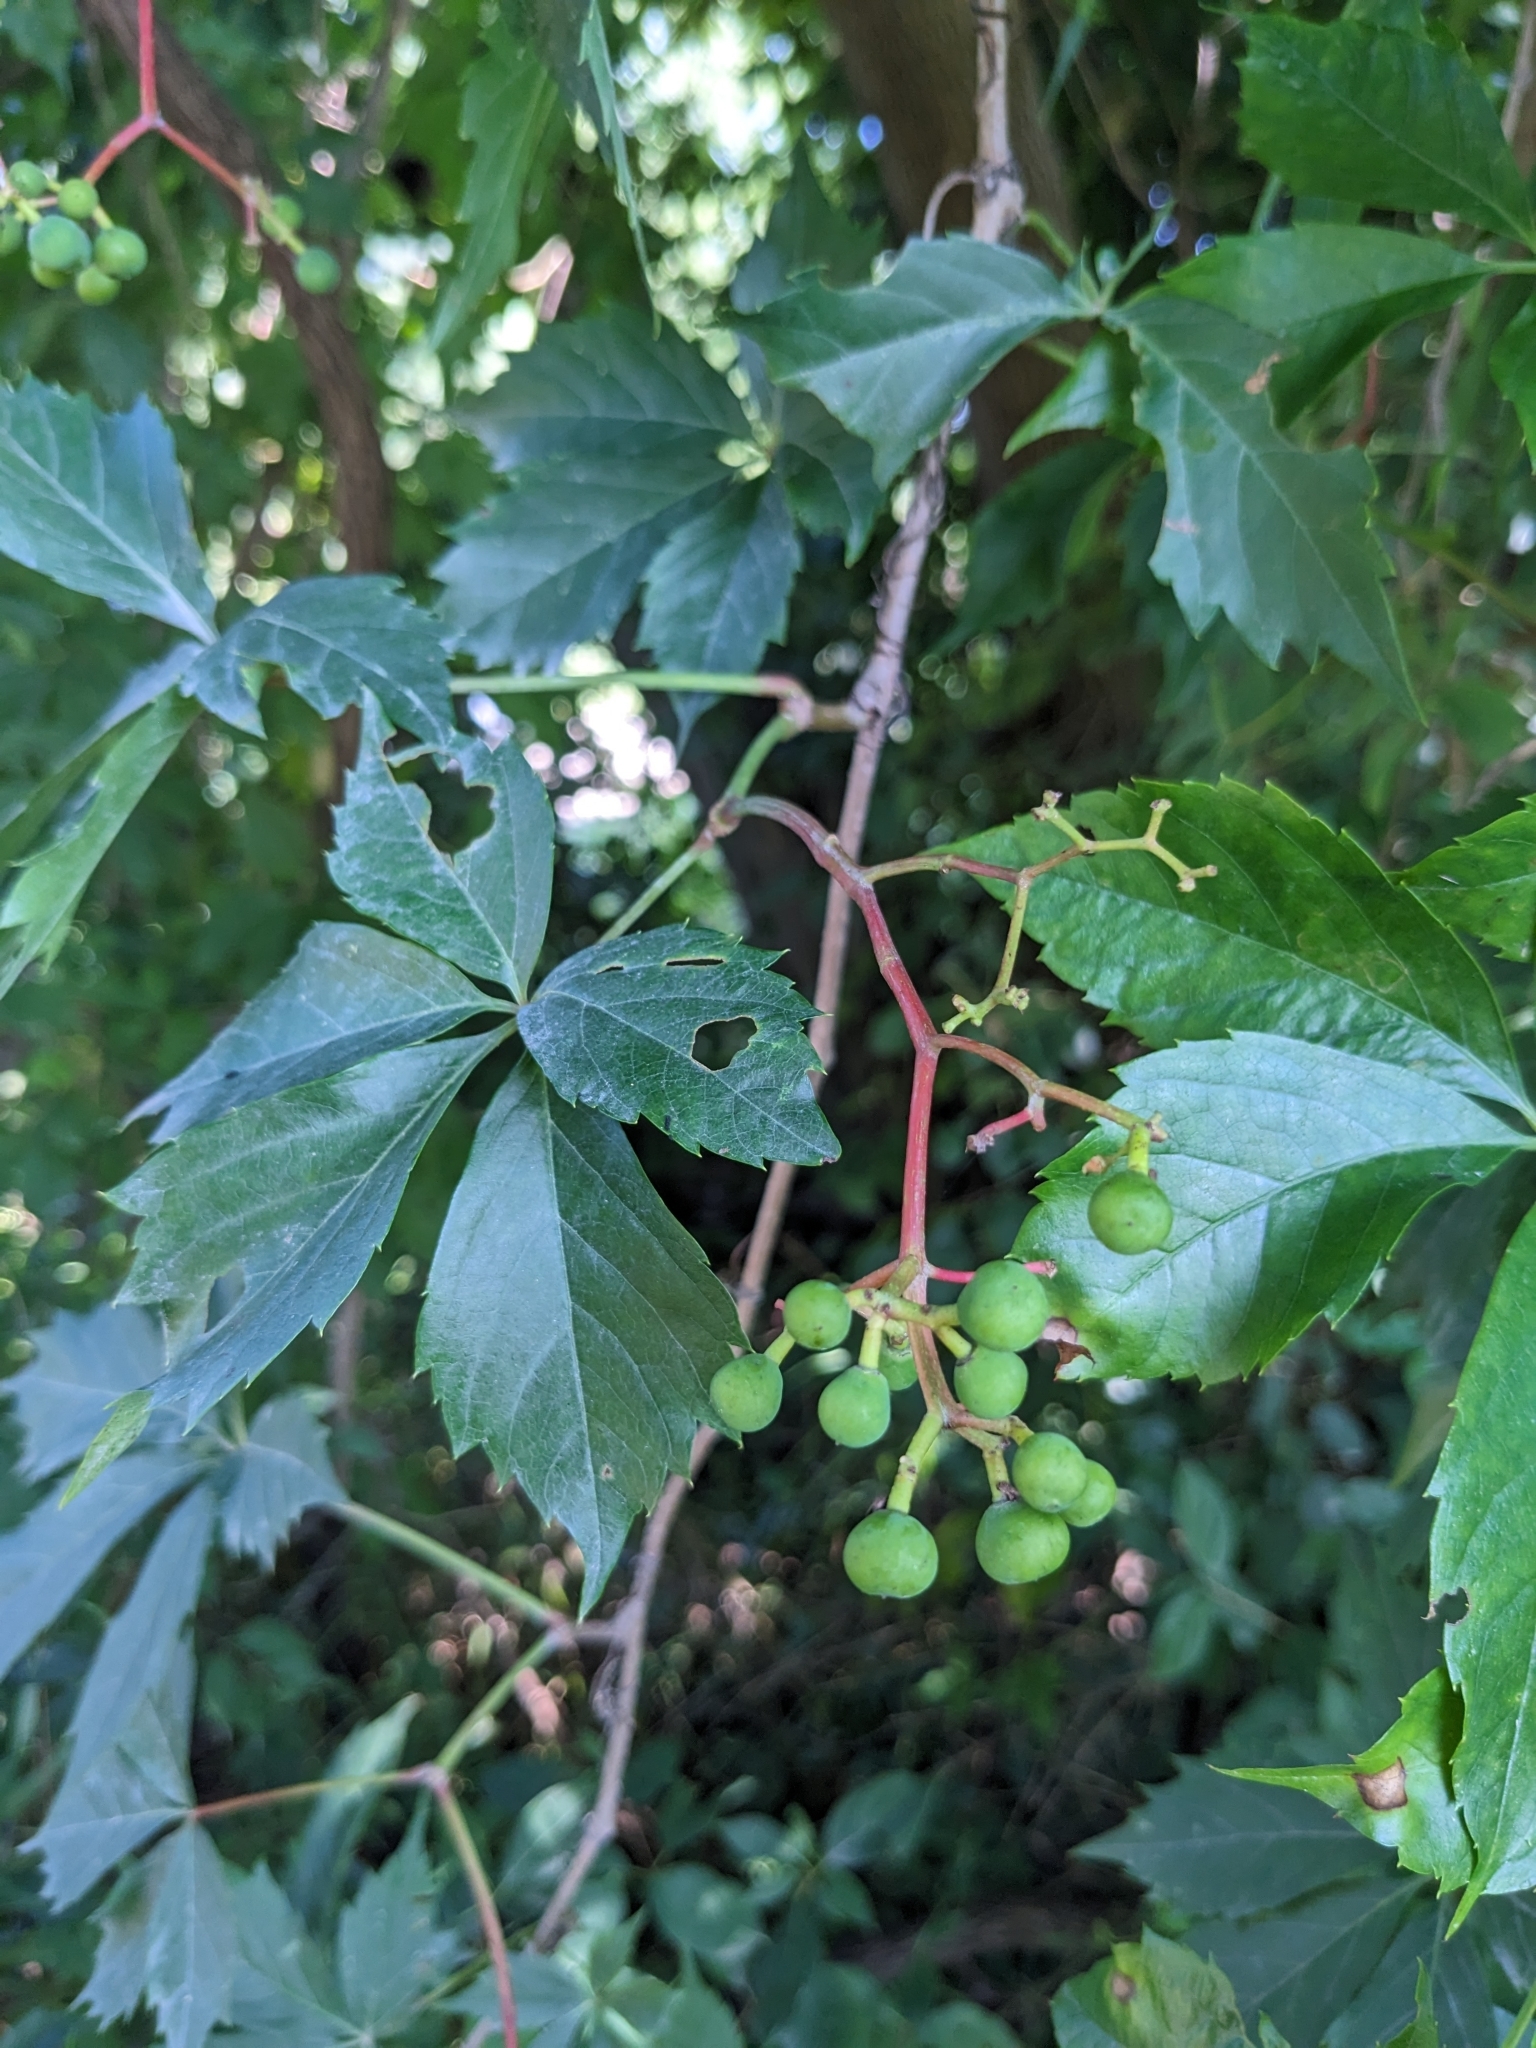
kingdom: Plantae
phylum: Tracheophyta
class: Magnoliopsida
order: Vitales
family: Vitaceae
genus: Parthenocissus
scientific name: Parthenocissus quinquefolia
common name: Virginia-creeper
